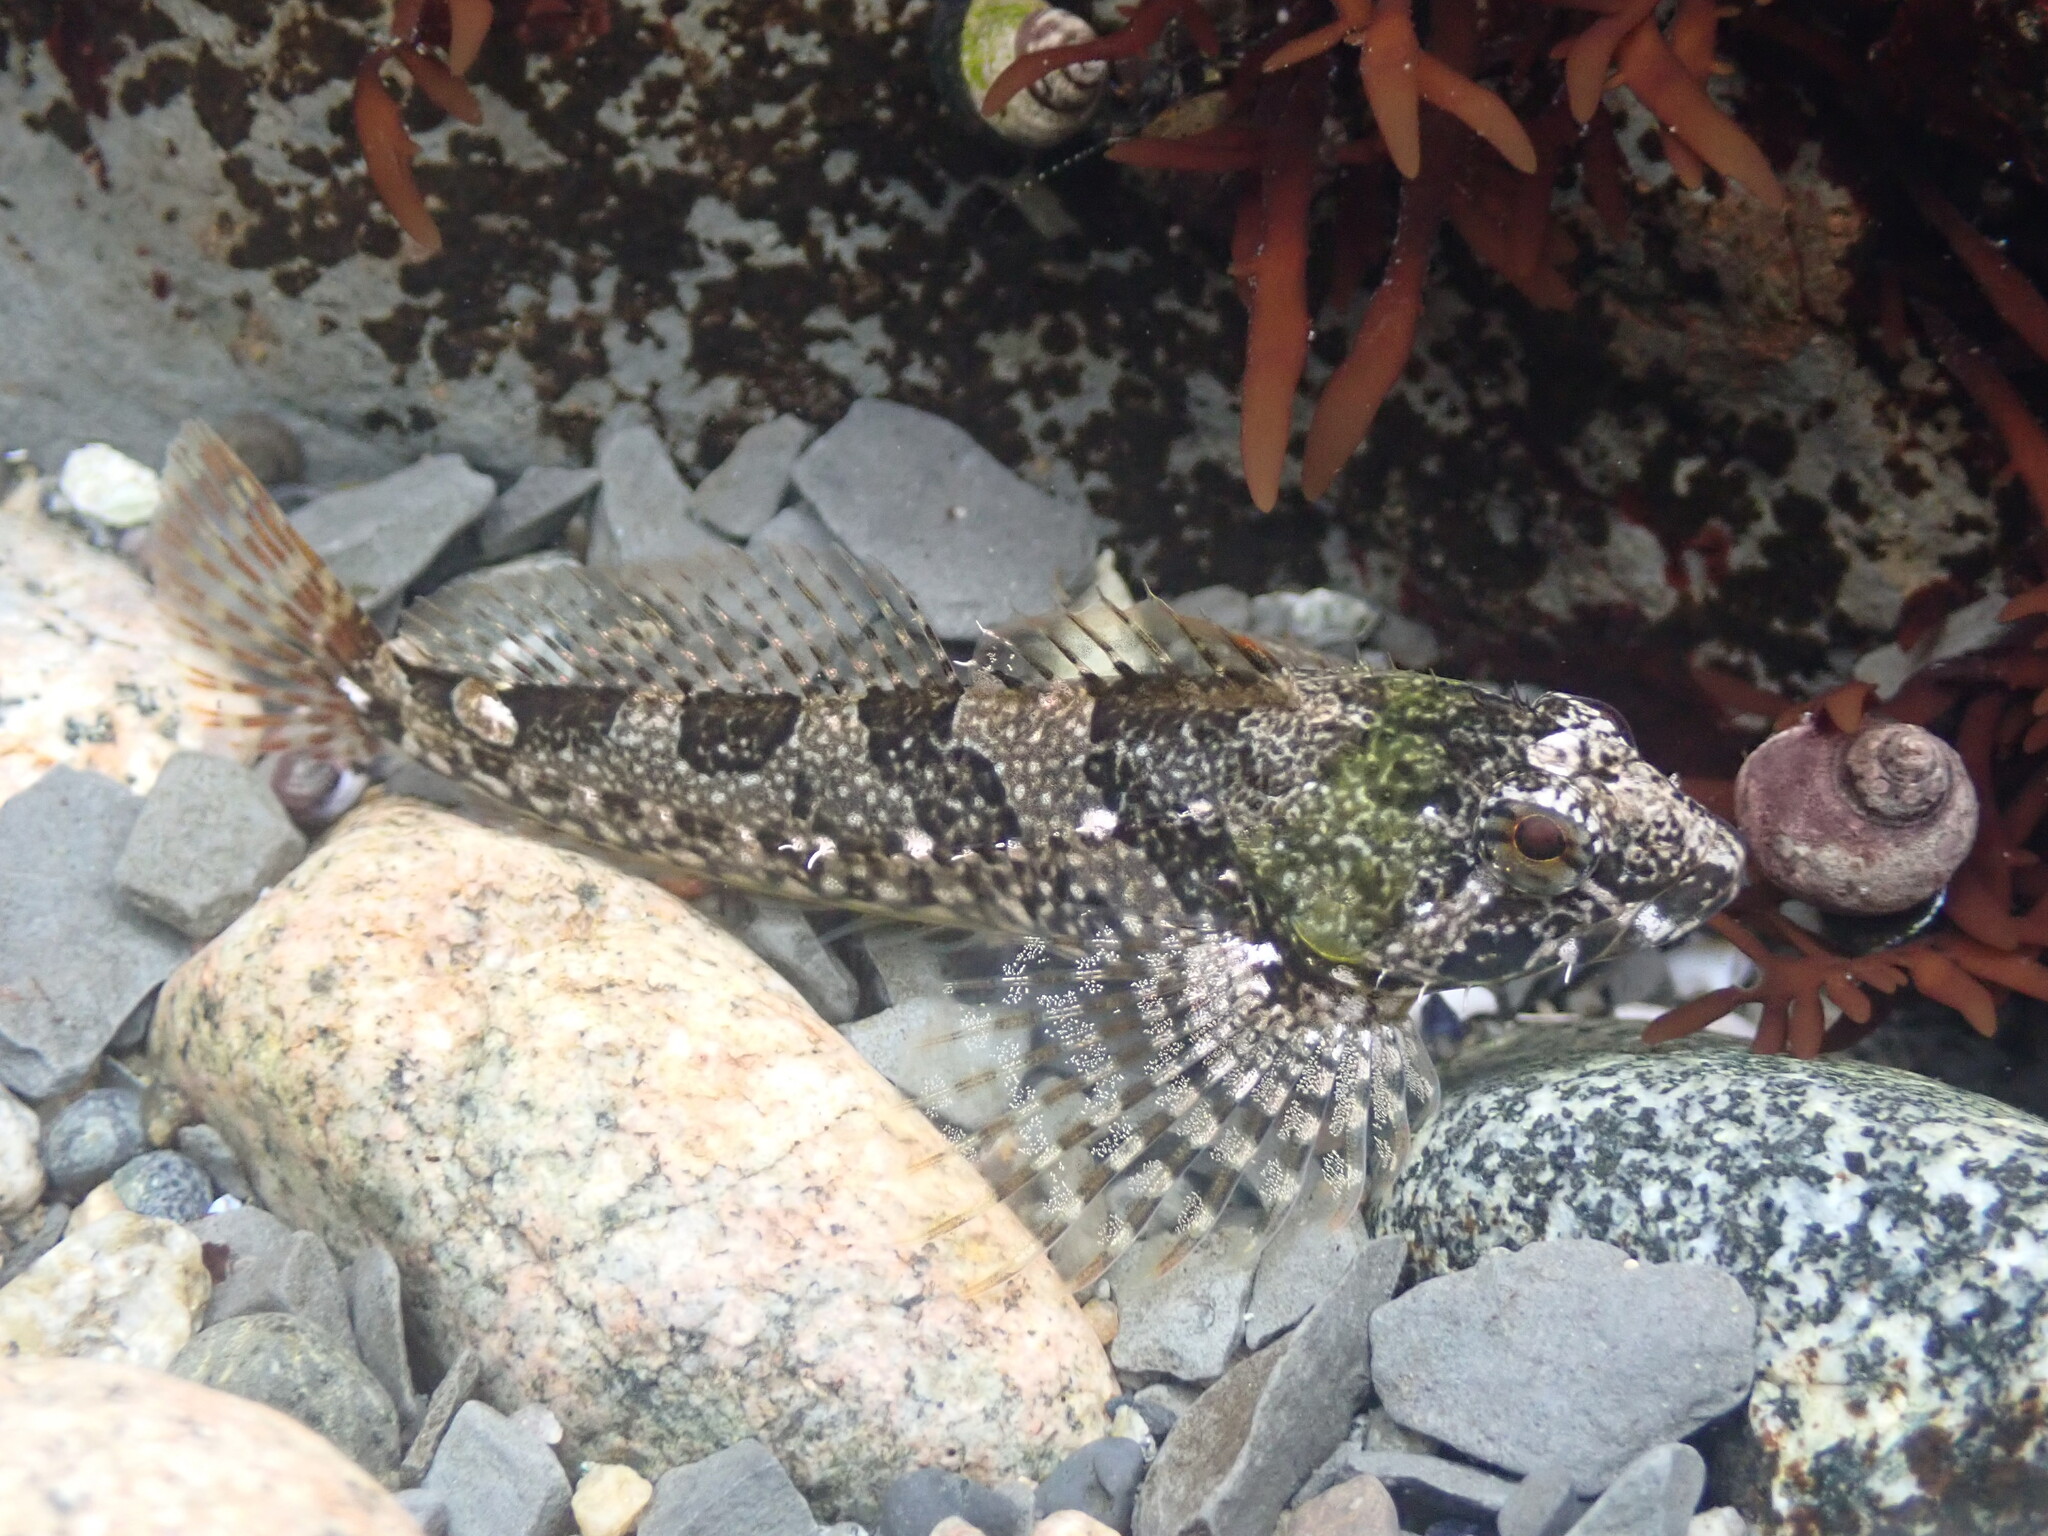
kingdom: Animalia
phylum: Chordata
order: Scorpaeniformes
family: Cottidae
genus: Oligocottus
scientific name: Oligocottus maculosus
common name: Tidepool sculpin
